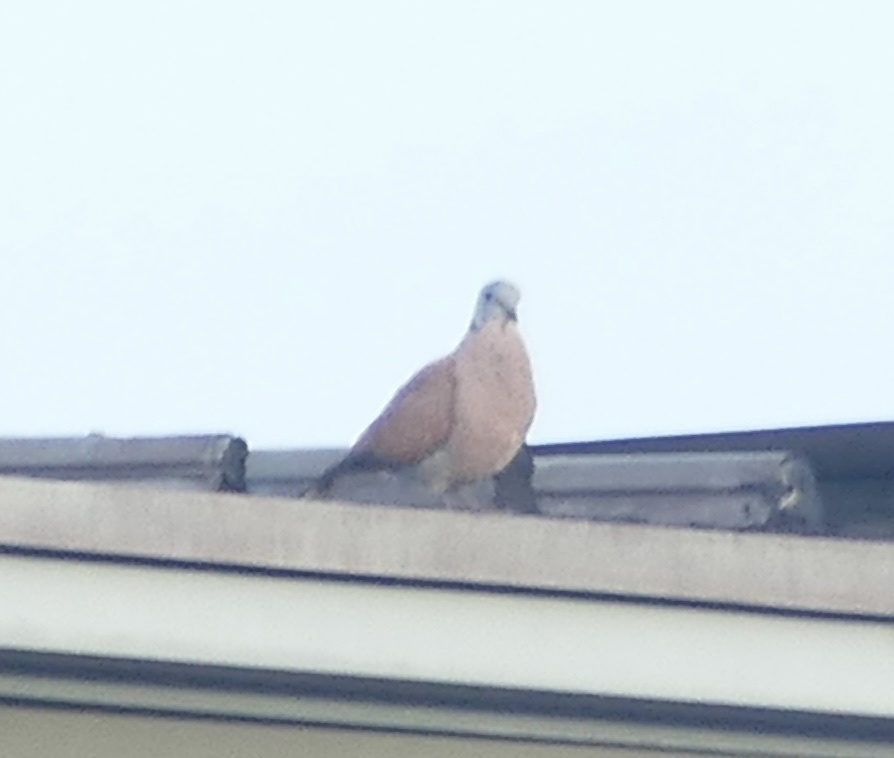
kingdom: Animalia
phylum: Chordata
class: Aves
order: Columbiformes
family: Columbidae
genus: Streptopelia
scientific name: Streptopelia tranquebarica
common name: Red turtle dove
